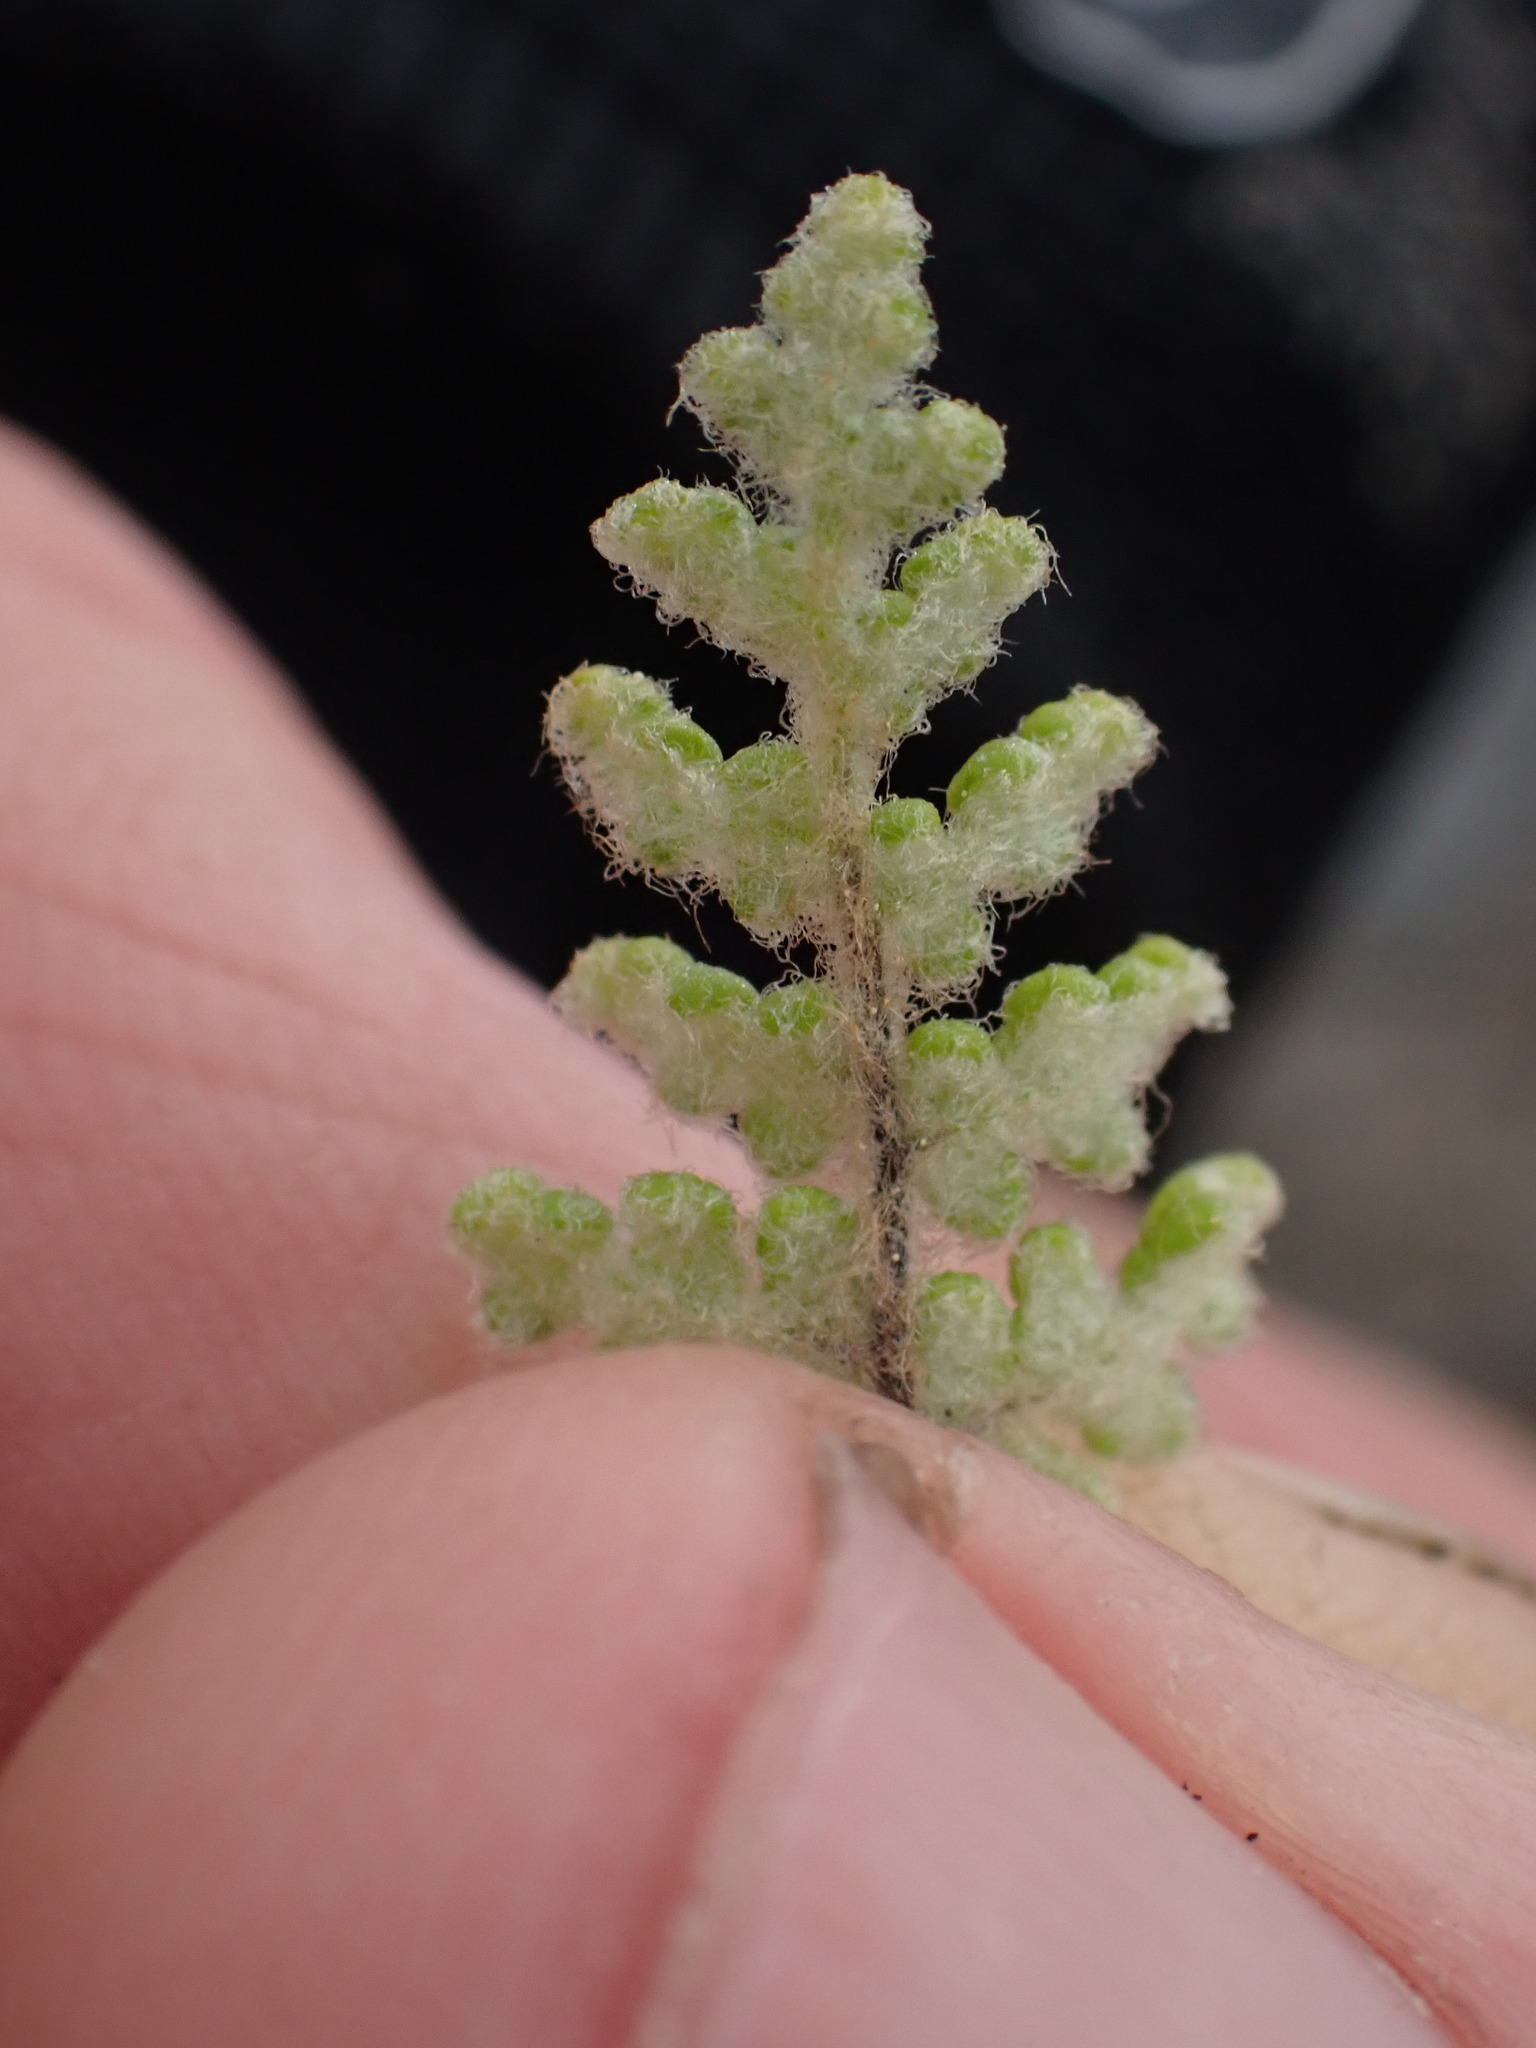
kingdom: Plantae
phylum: Tracheophyta
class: Polypodiopsida
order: Polypodiales
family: Pteridaceae
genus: Myriopteris
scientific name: Myriopteris gracilis
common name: Fee's lip fern
